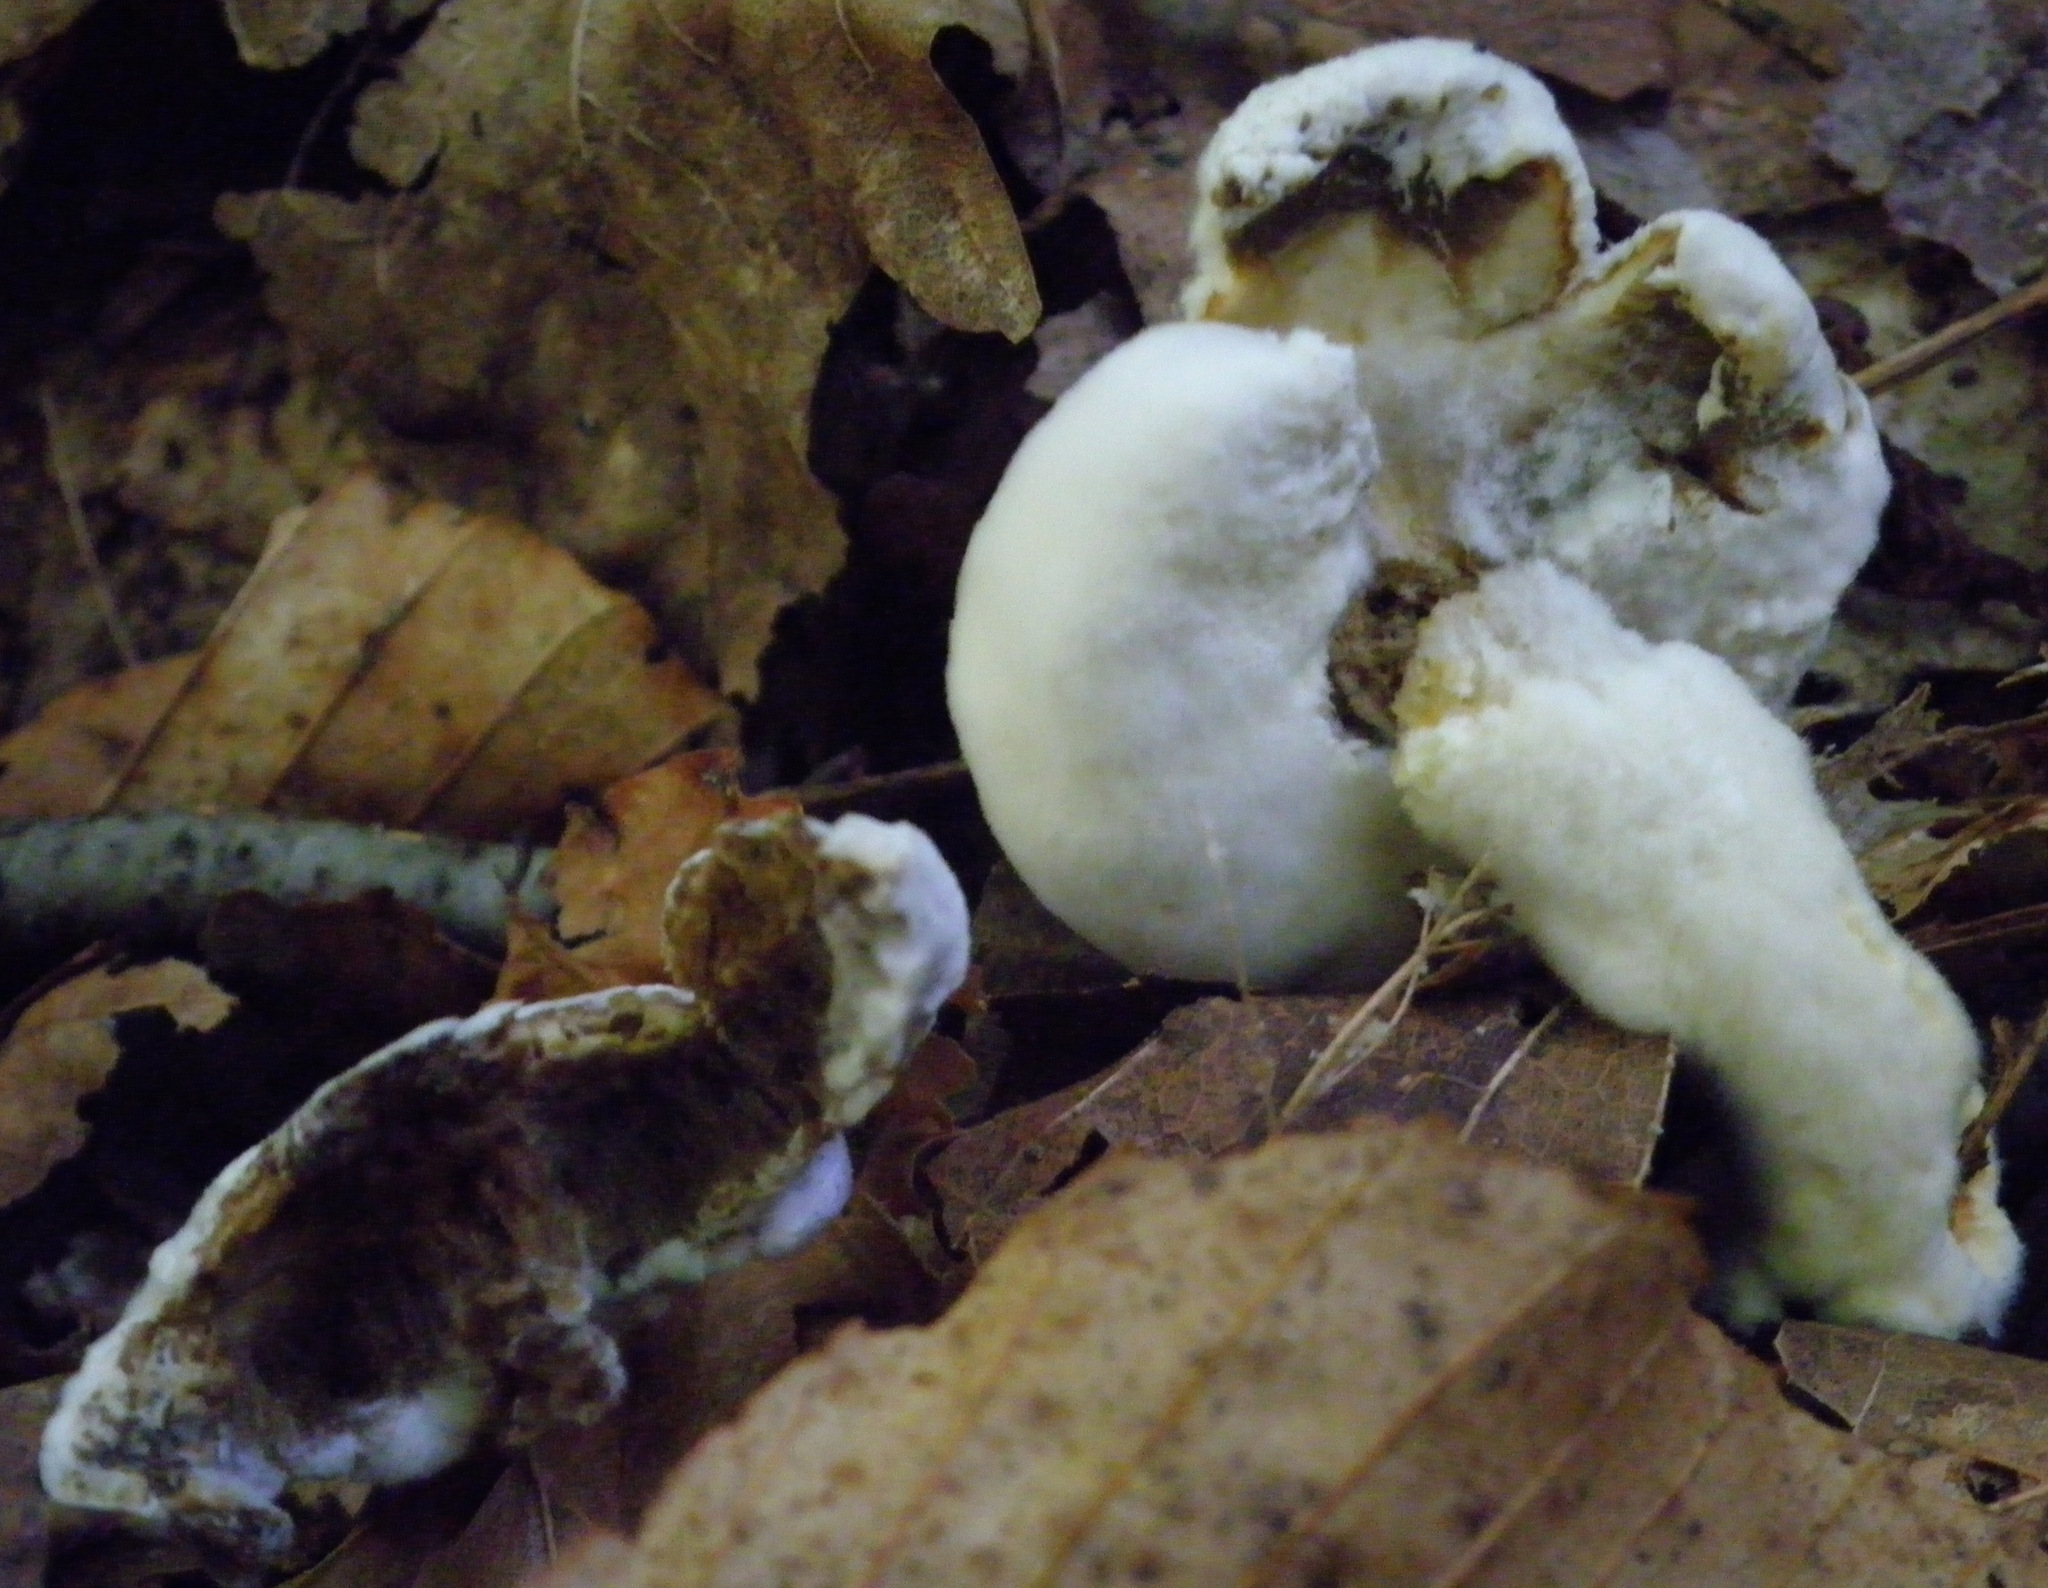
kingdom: Fungi
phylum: Ascomycota
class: Sordariomycetes
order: Hypocreales
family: Hypocreaceae
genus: Hypomyces
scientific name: Hypomyces chrysospermus
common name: Bolete mould
